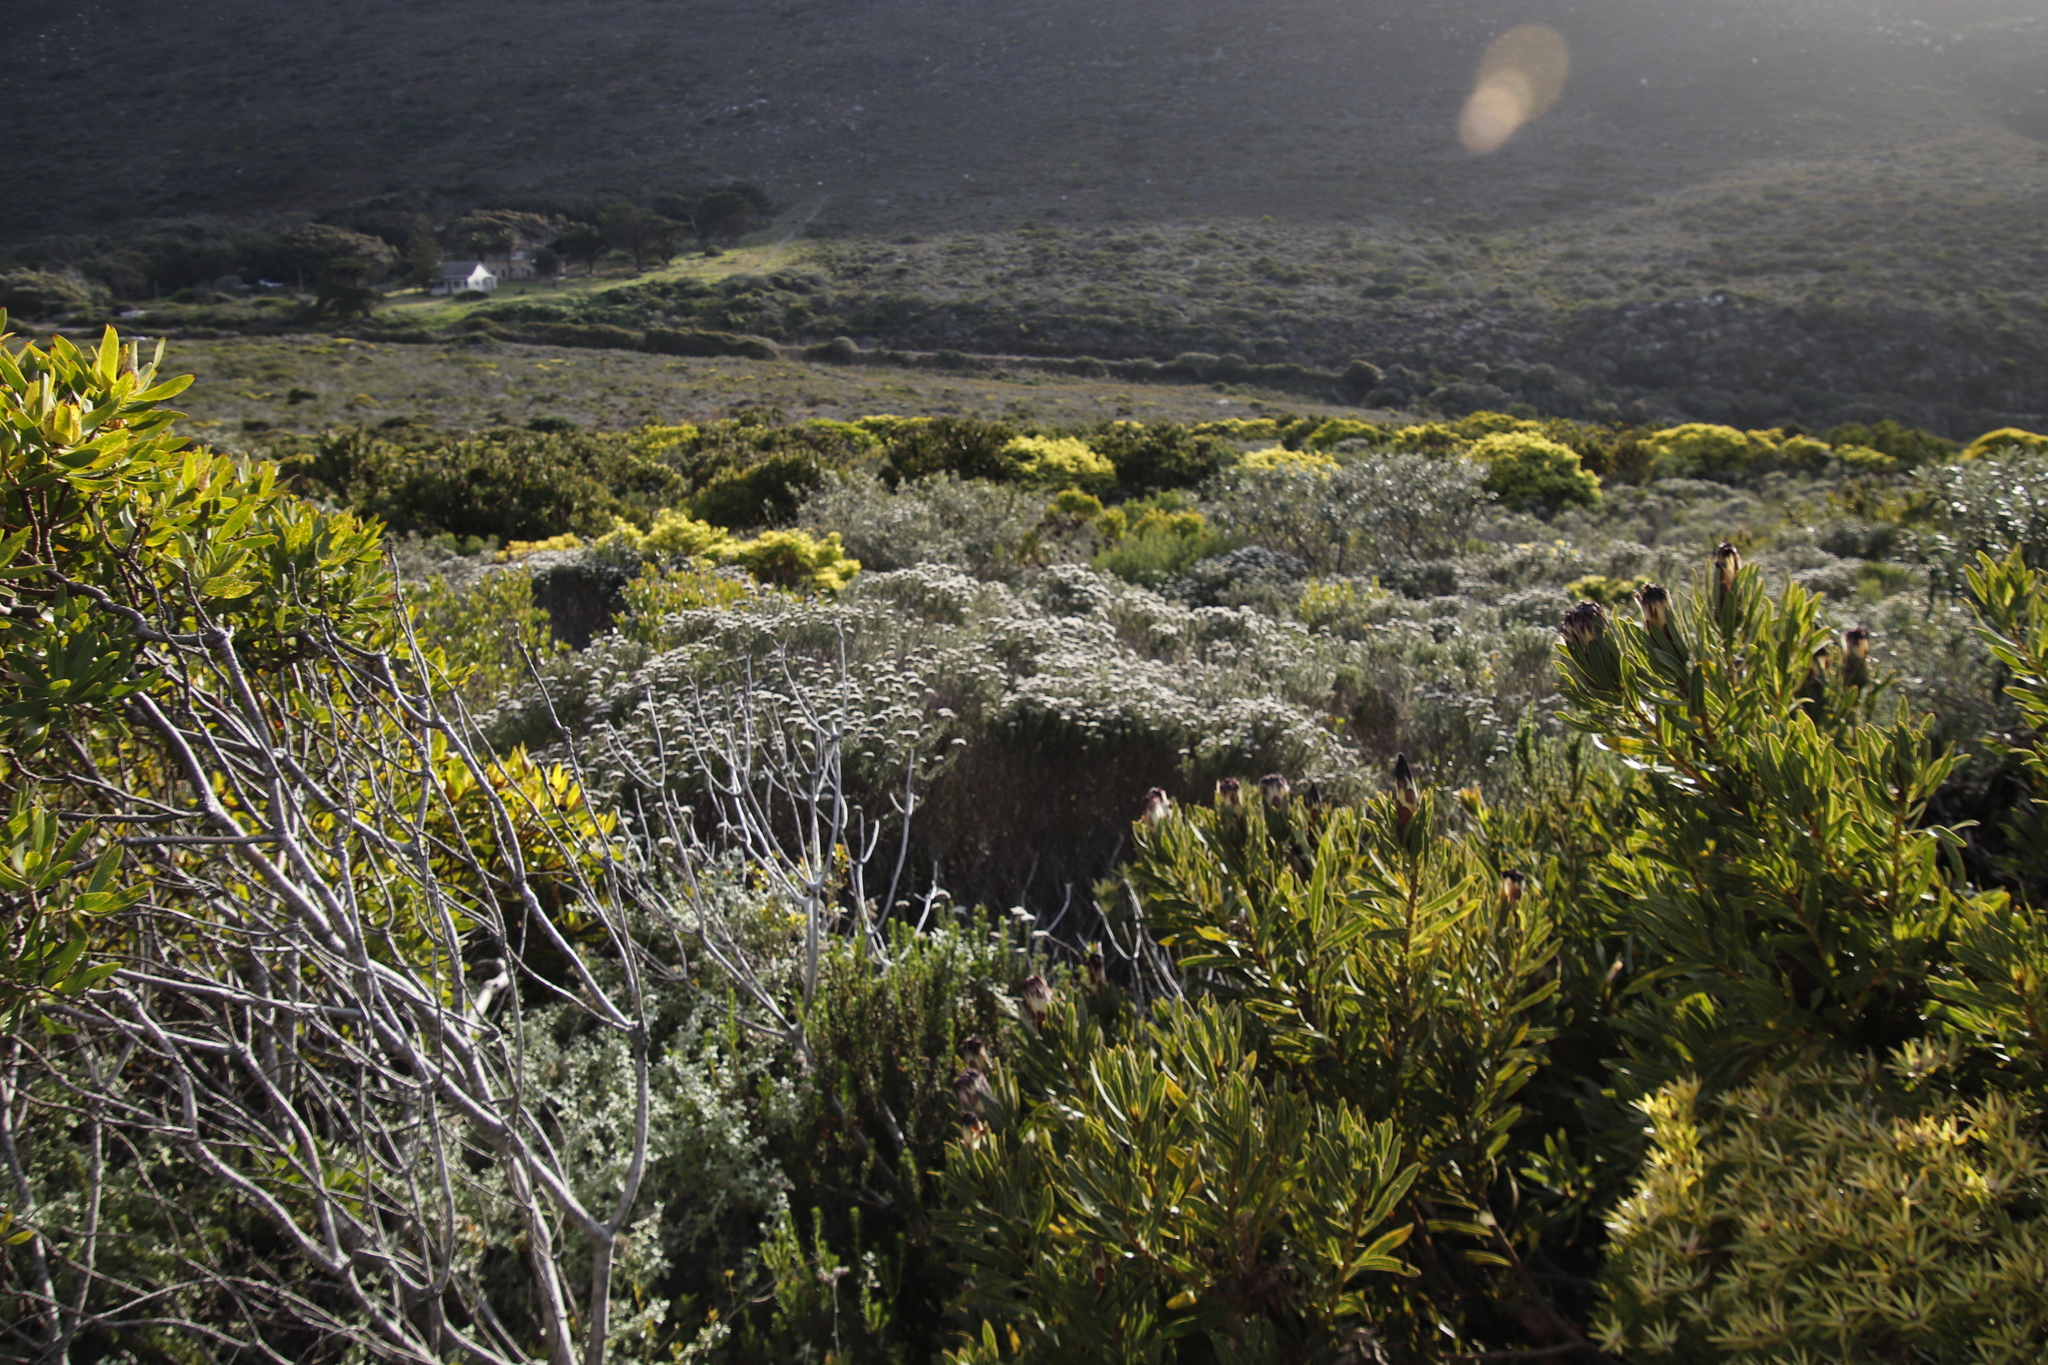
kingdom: Plantae
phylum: Tracheophyta
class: Magnoliopsida
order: Proteales
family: Proteaceae
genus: Leucadendron
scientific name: Leucadendron salignum
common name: Common sunshine conebush
